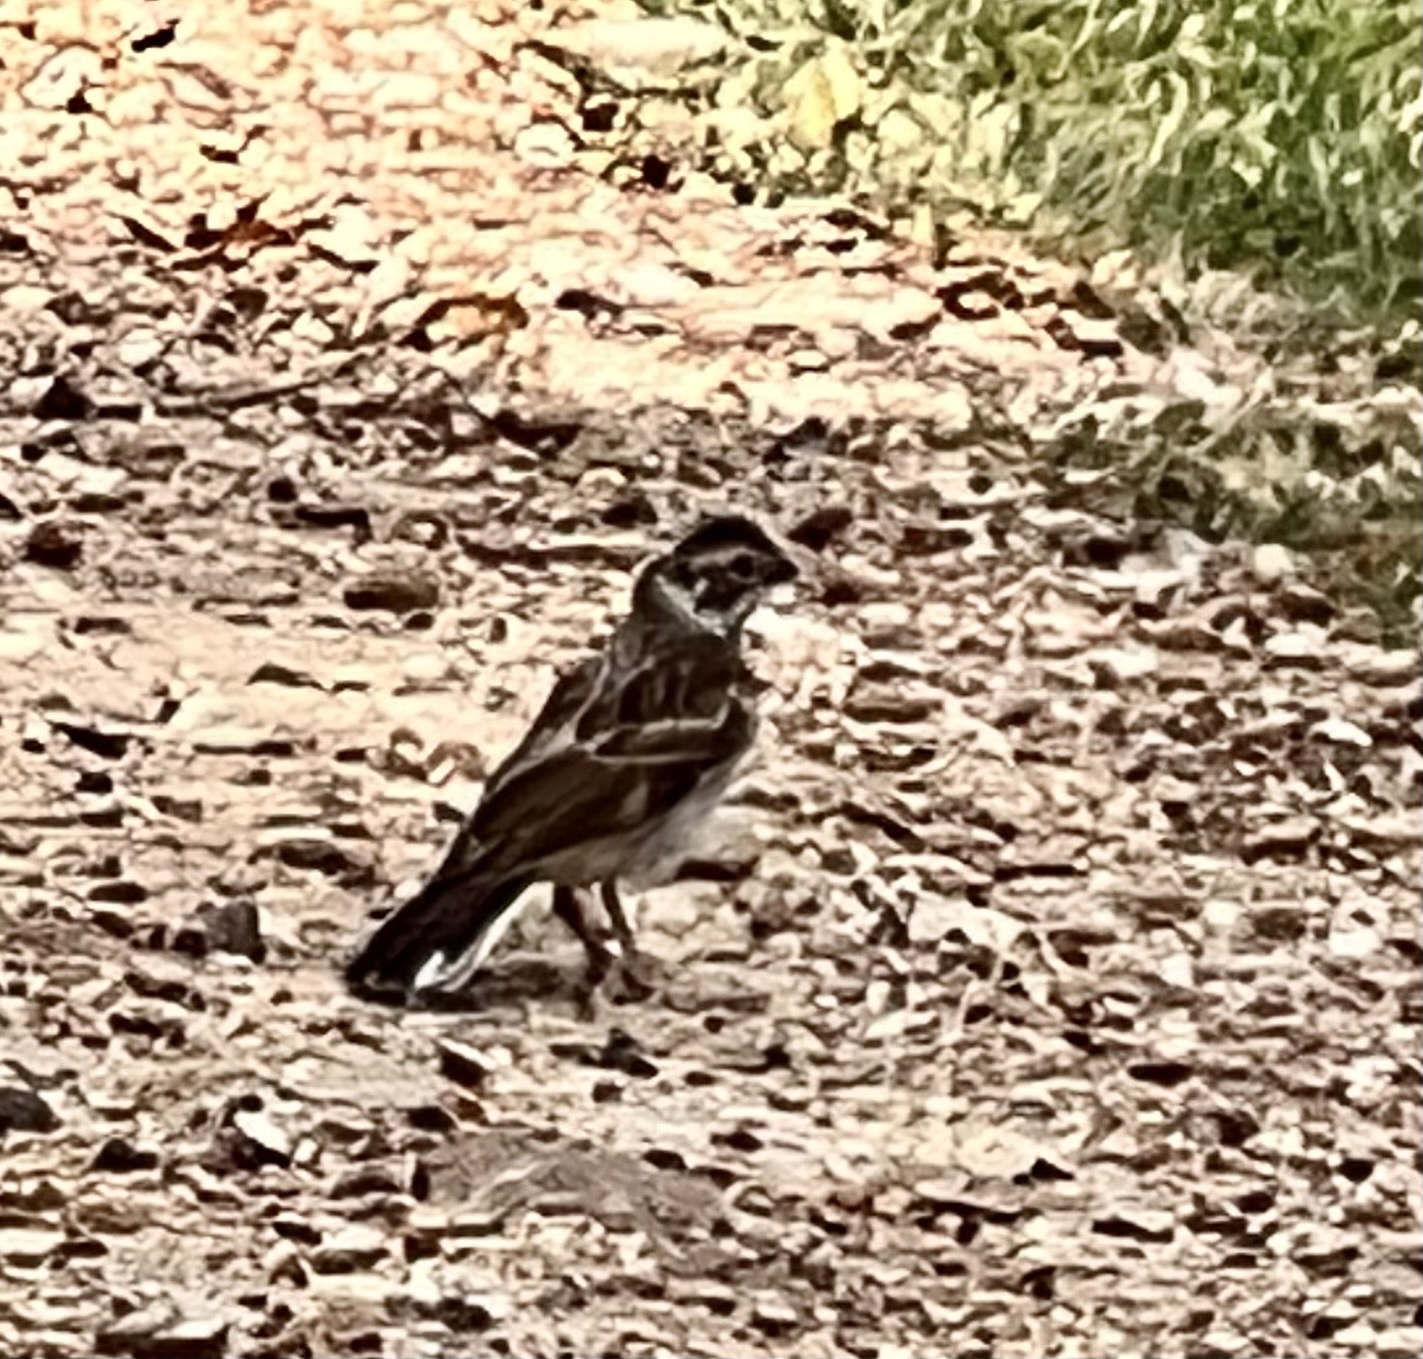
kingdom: Animalia
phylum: Chordata
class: Aves
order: Passeriformes
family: Passerellidae
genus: Chondestes
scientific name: Chondestes grammacus
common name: Lark sparrow
